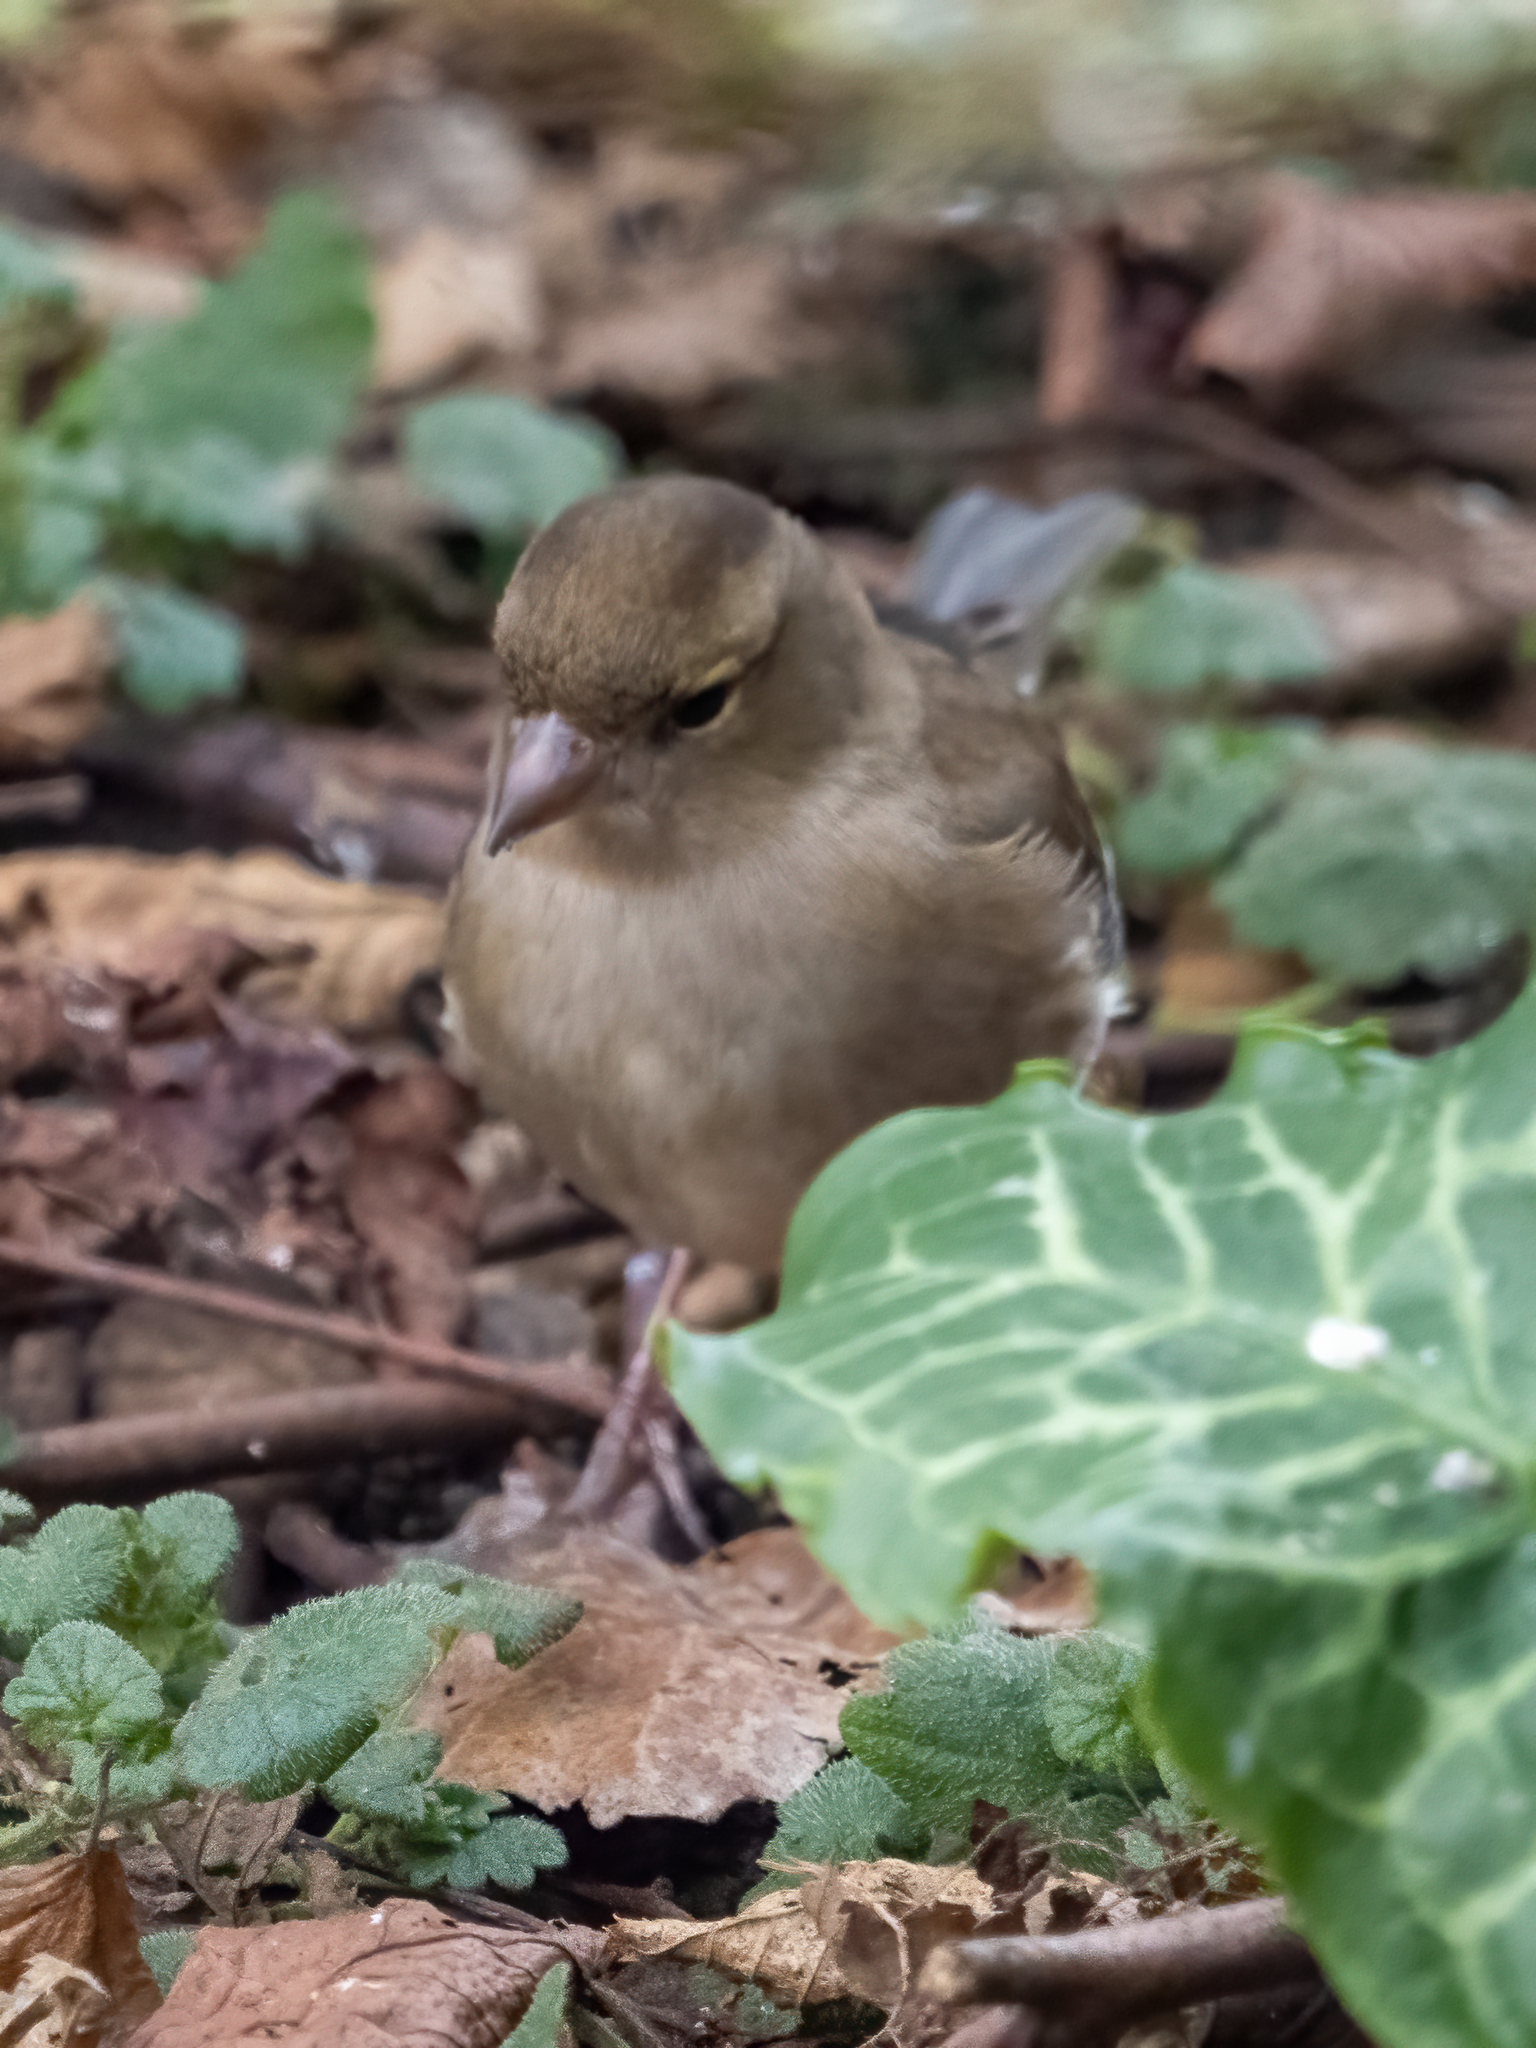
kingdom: Animalia
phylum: Chordata
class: Aves
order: Passeriformes
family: Fringillidae
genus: Fringilla
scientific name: Fringilla coelebs
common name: Common chaffinch
